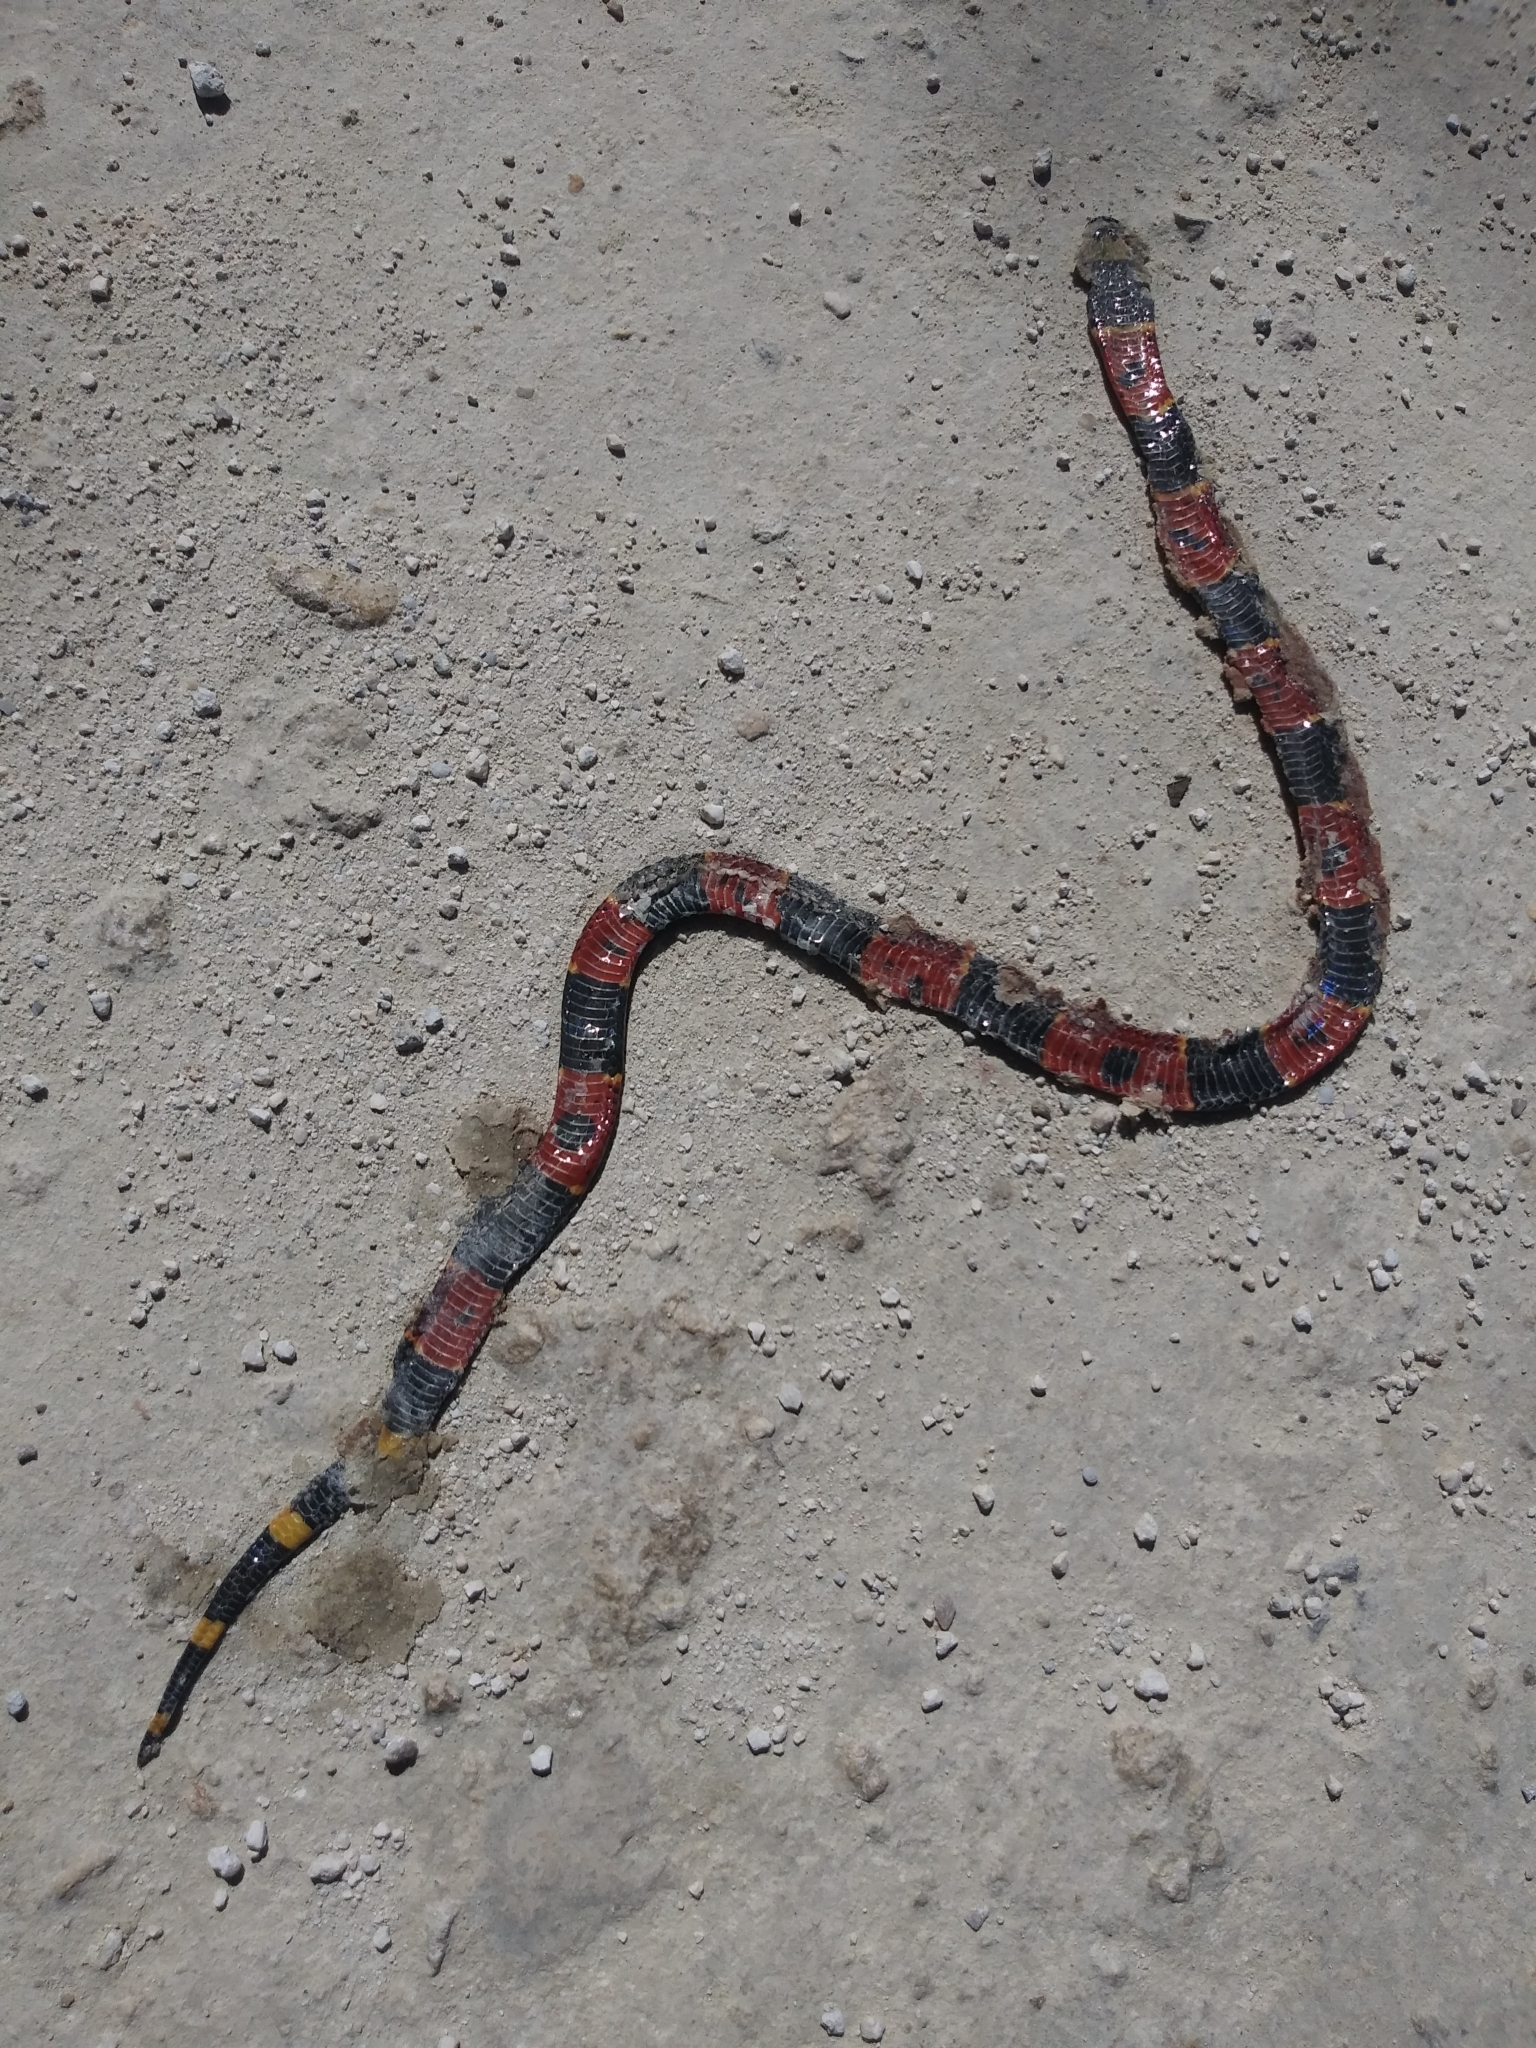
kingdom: Animalia
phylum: Chordata
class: Squamata
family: Elapidae
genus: Micrurus
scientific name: Micrurus fulvius
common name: Eastern coral snake
